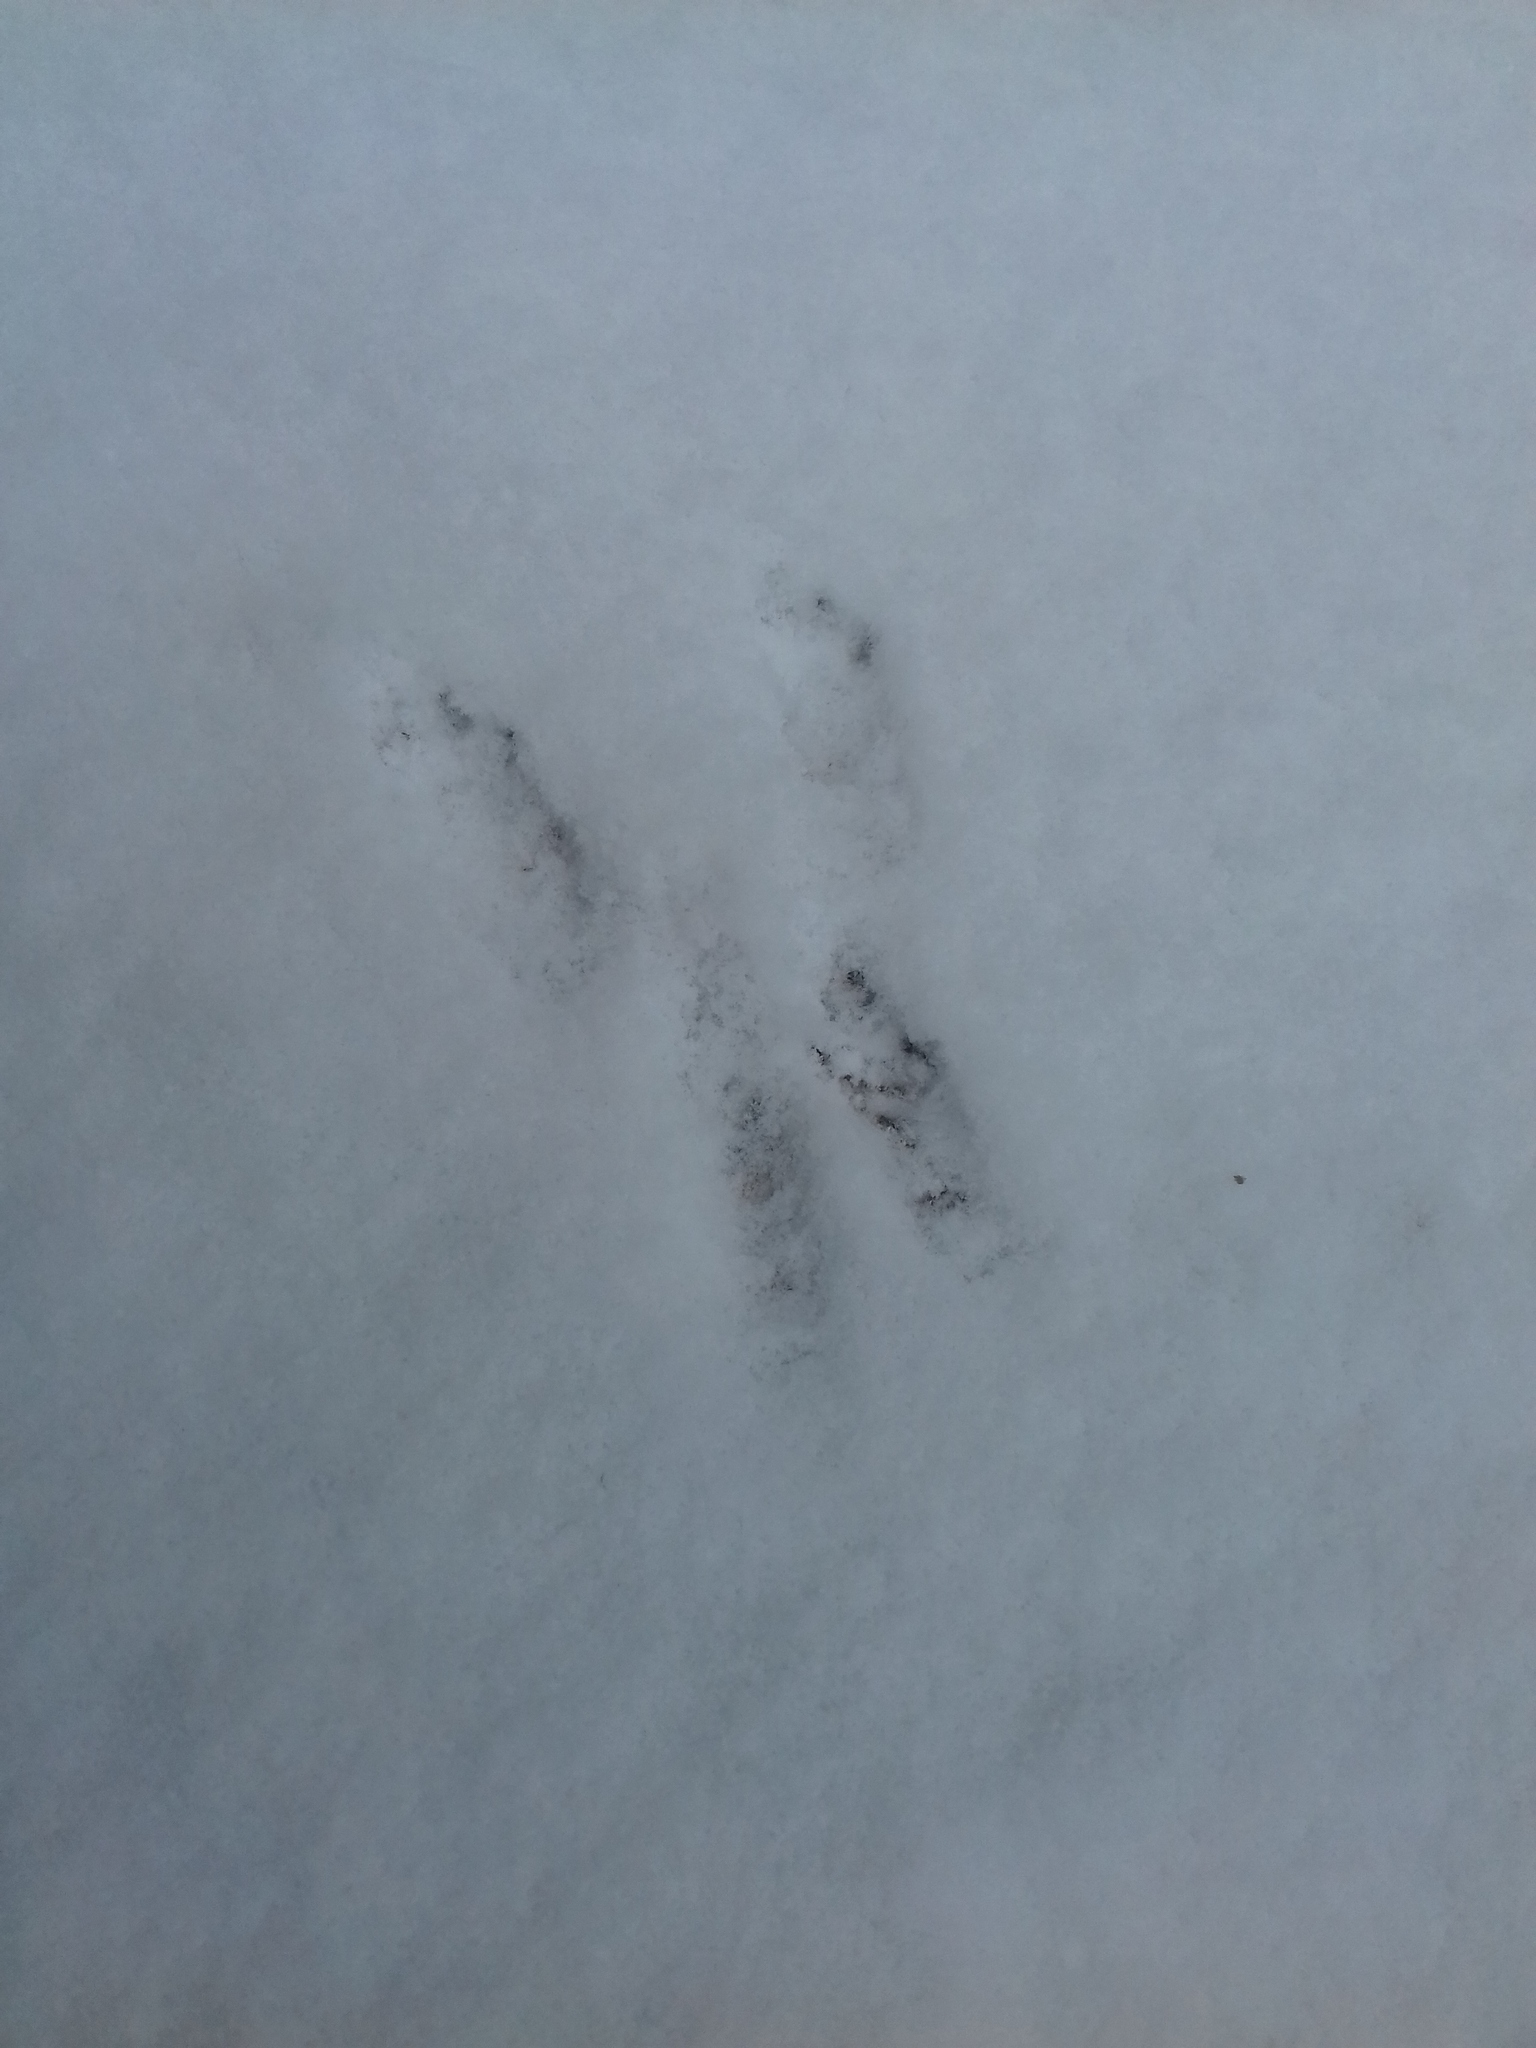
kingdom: Animalia
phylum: Chordata
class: Mammalia
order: Rodentia
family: Sciuridae
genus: Sciurus
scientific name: Sciurus vulgaris
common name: Eurasian red squirrel
